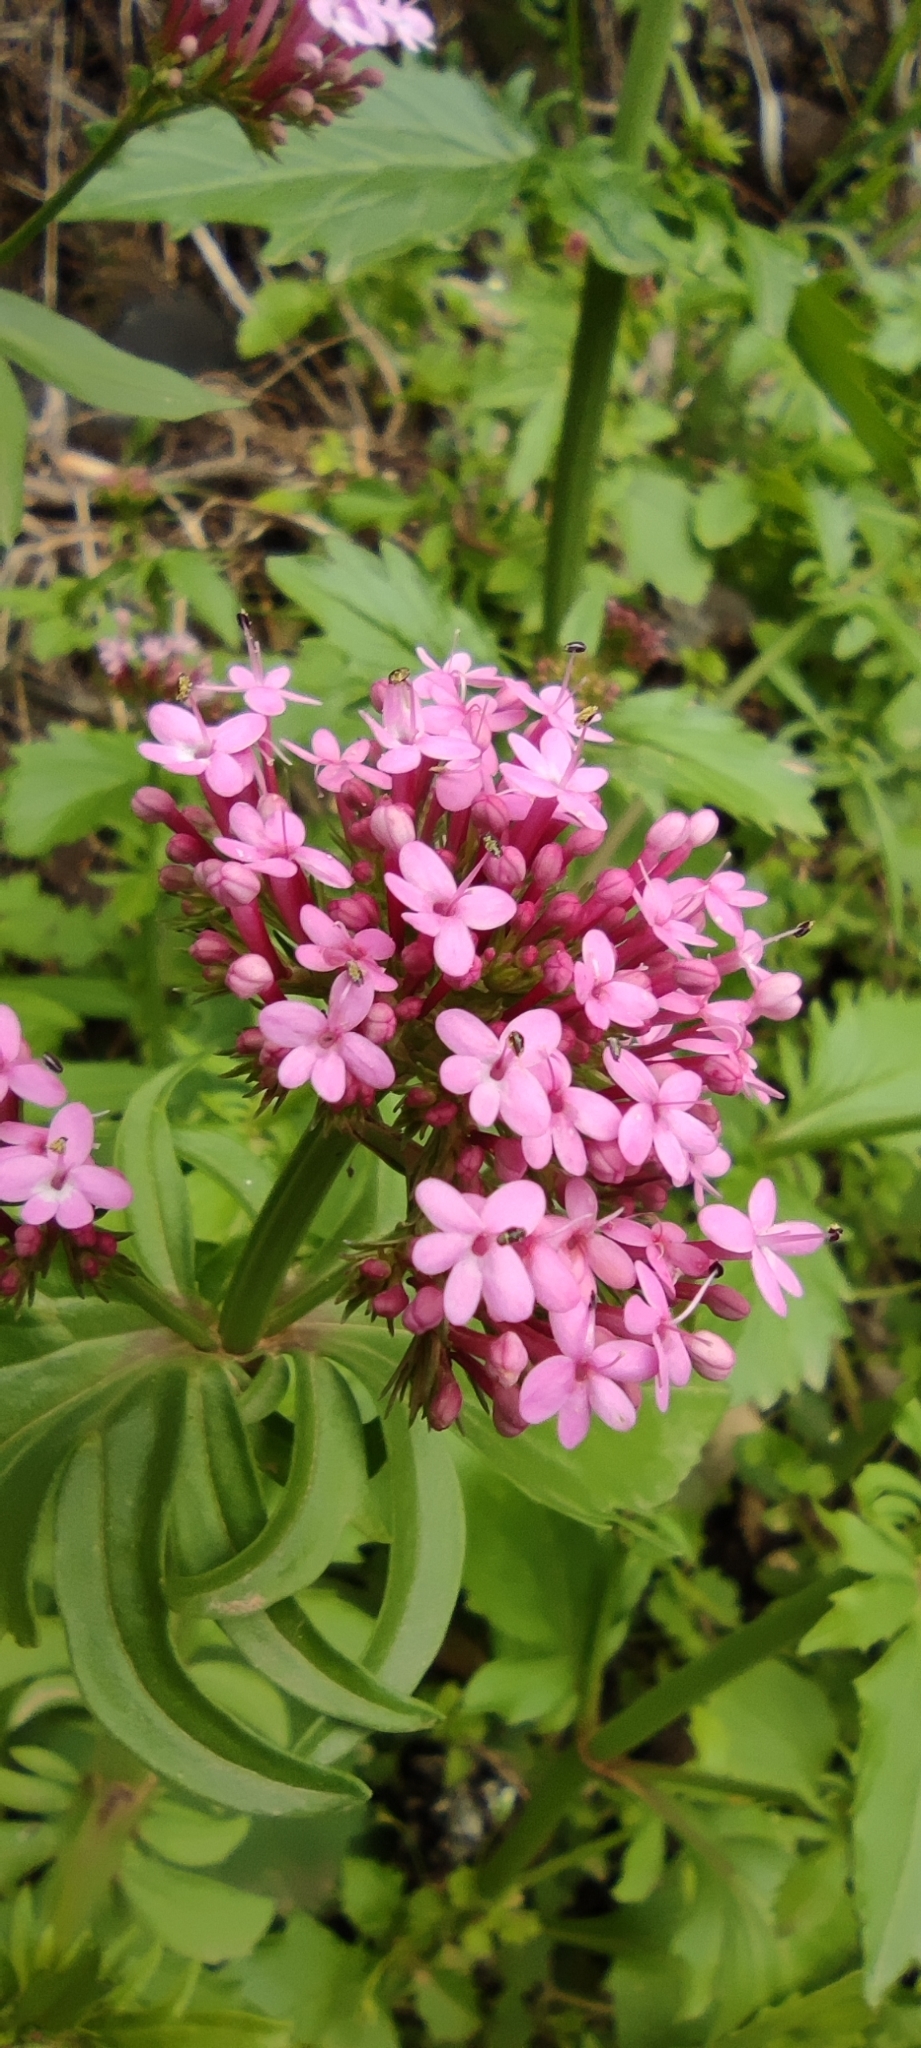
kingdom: Plantae
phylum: Tracheophyta
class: Magnoliopsida
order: Dipsacales
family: Caprifoliaceae
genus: Centranthus
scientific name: Centranthus macrosiphon
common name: Spanish-valerian
